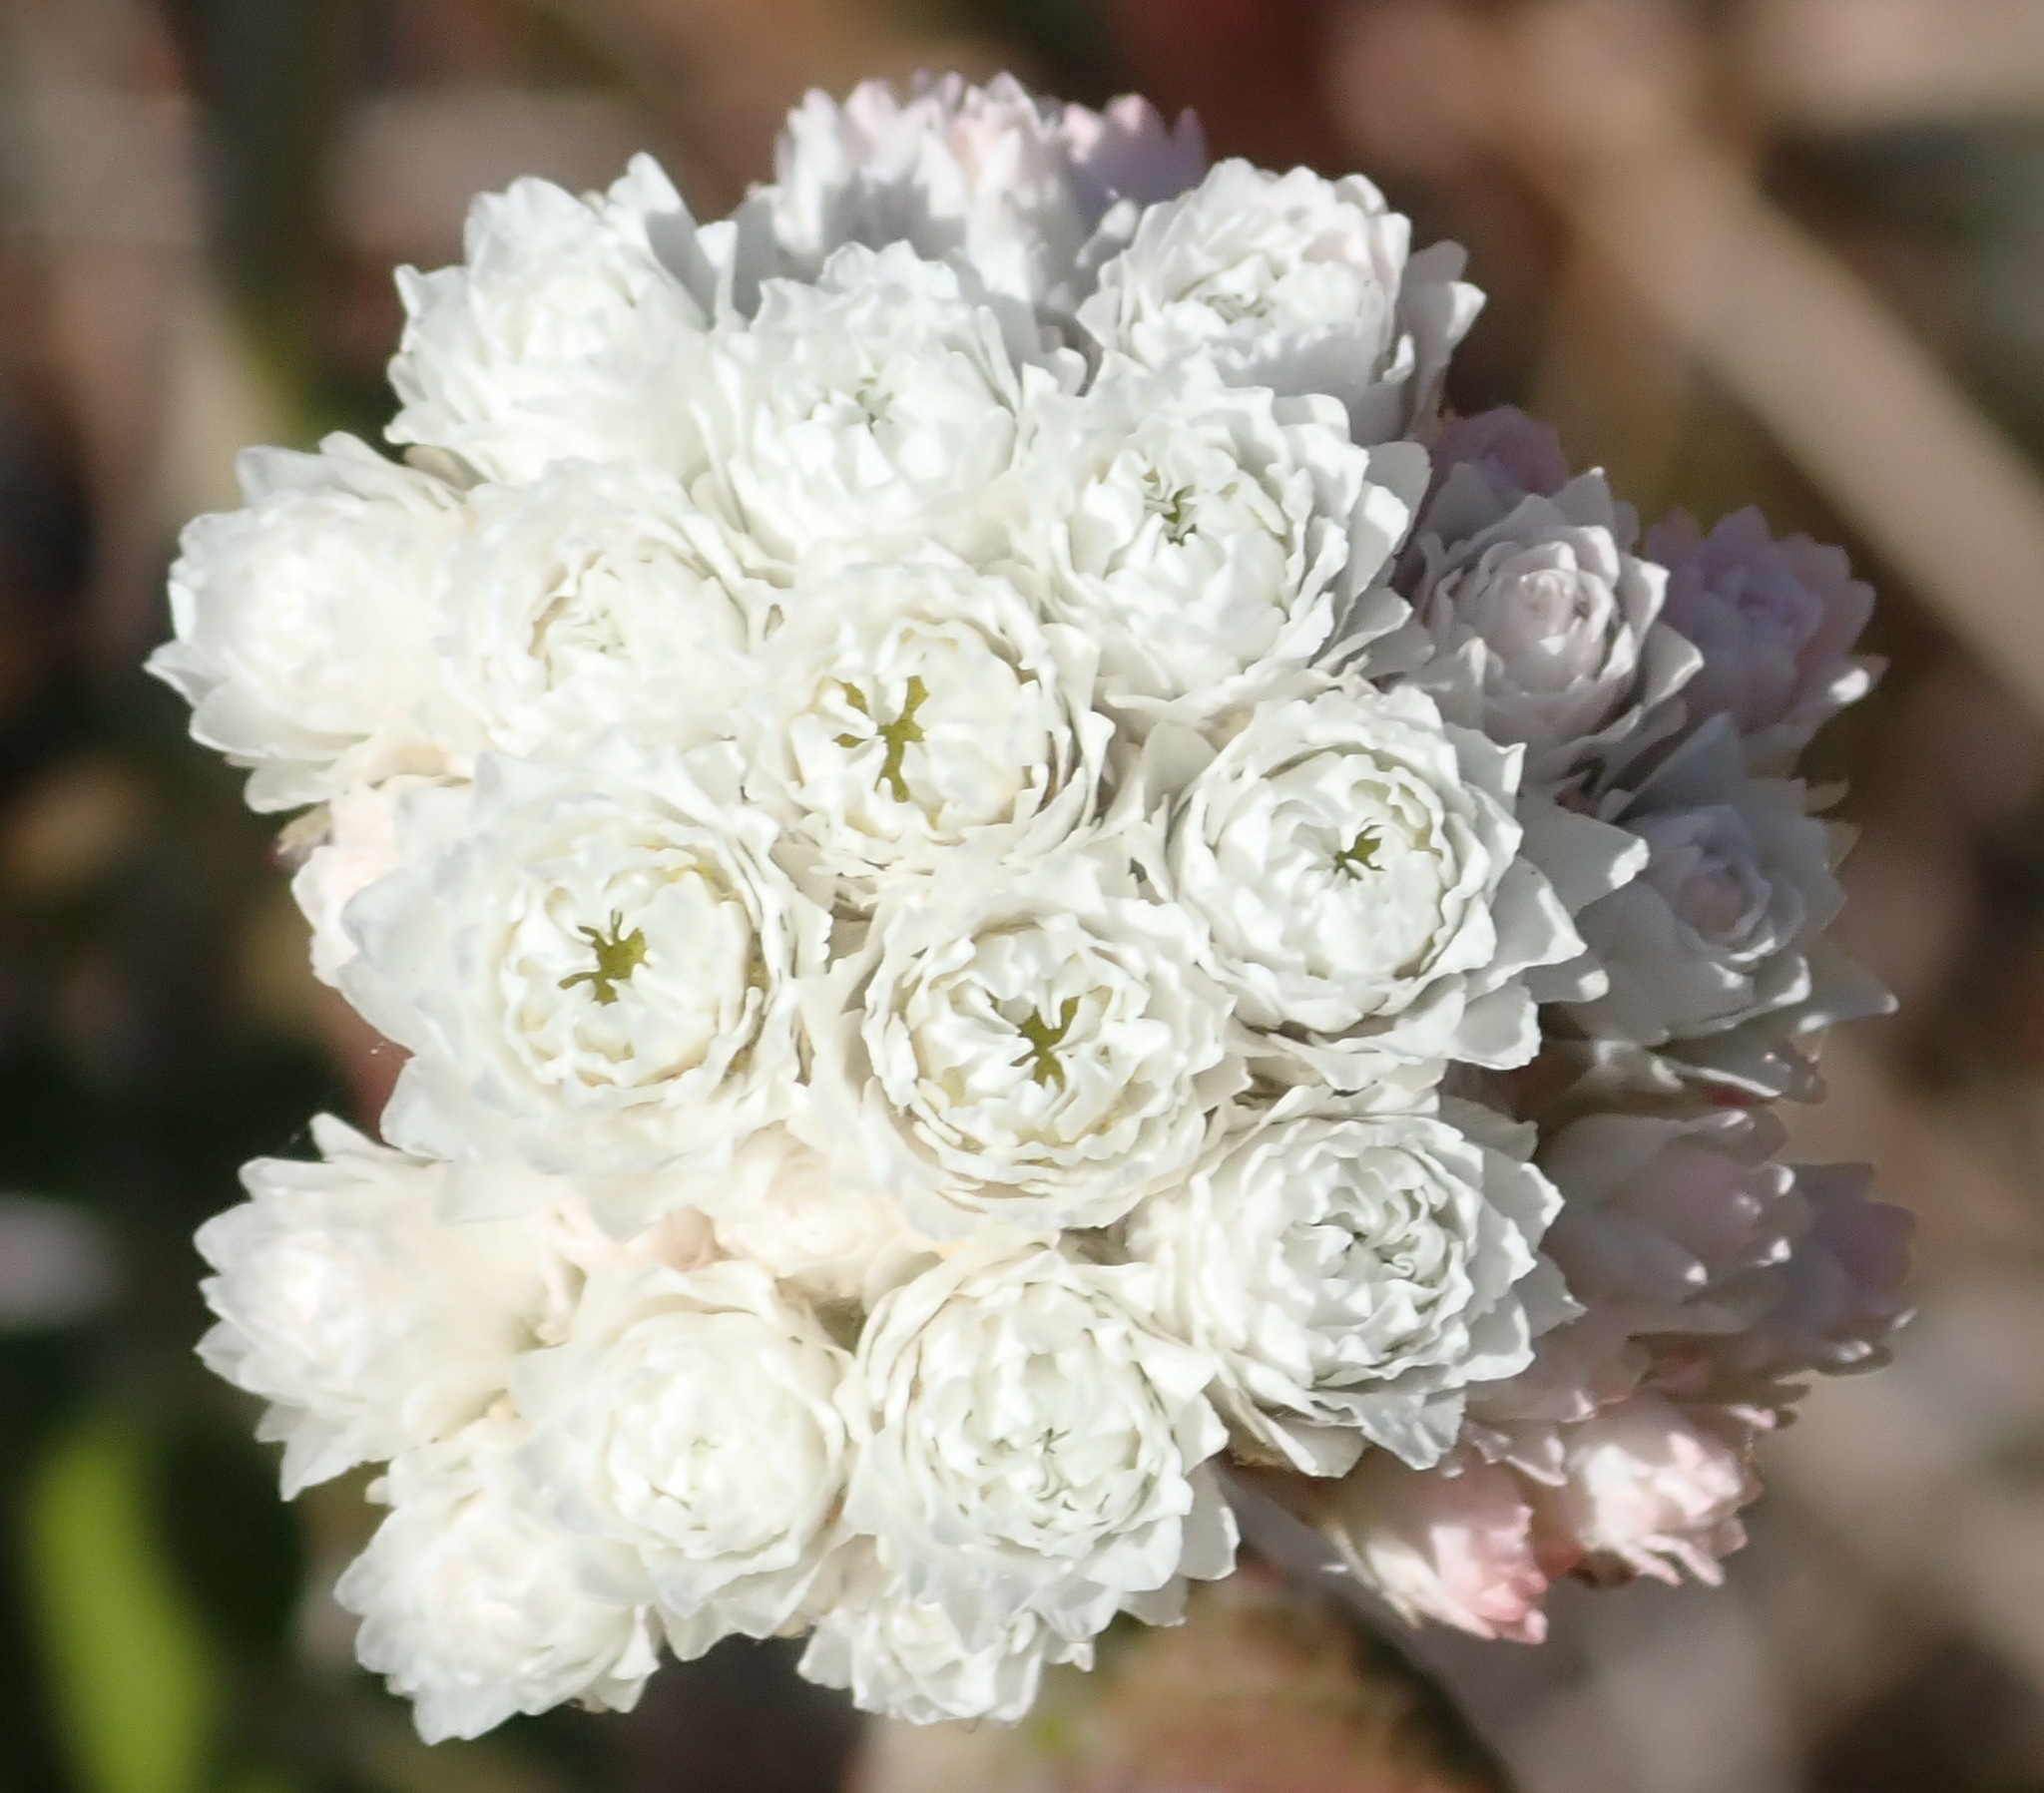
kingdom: Plantae
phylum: Tracheophyta
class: Magnoliopsida
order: Asterales
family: Asteraceae
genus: Helichrysum
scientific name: Helichrysum felinum
